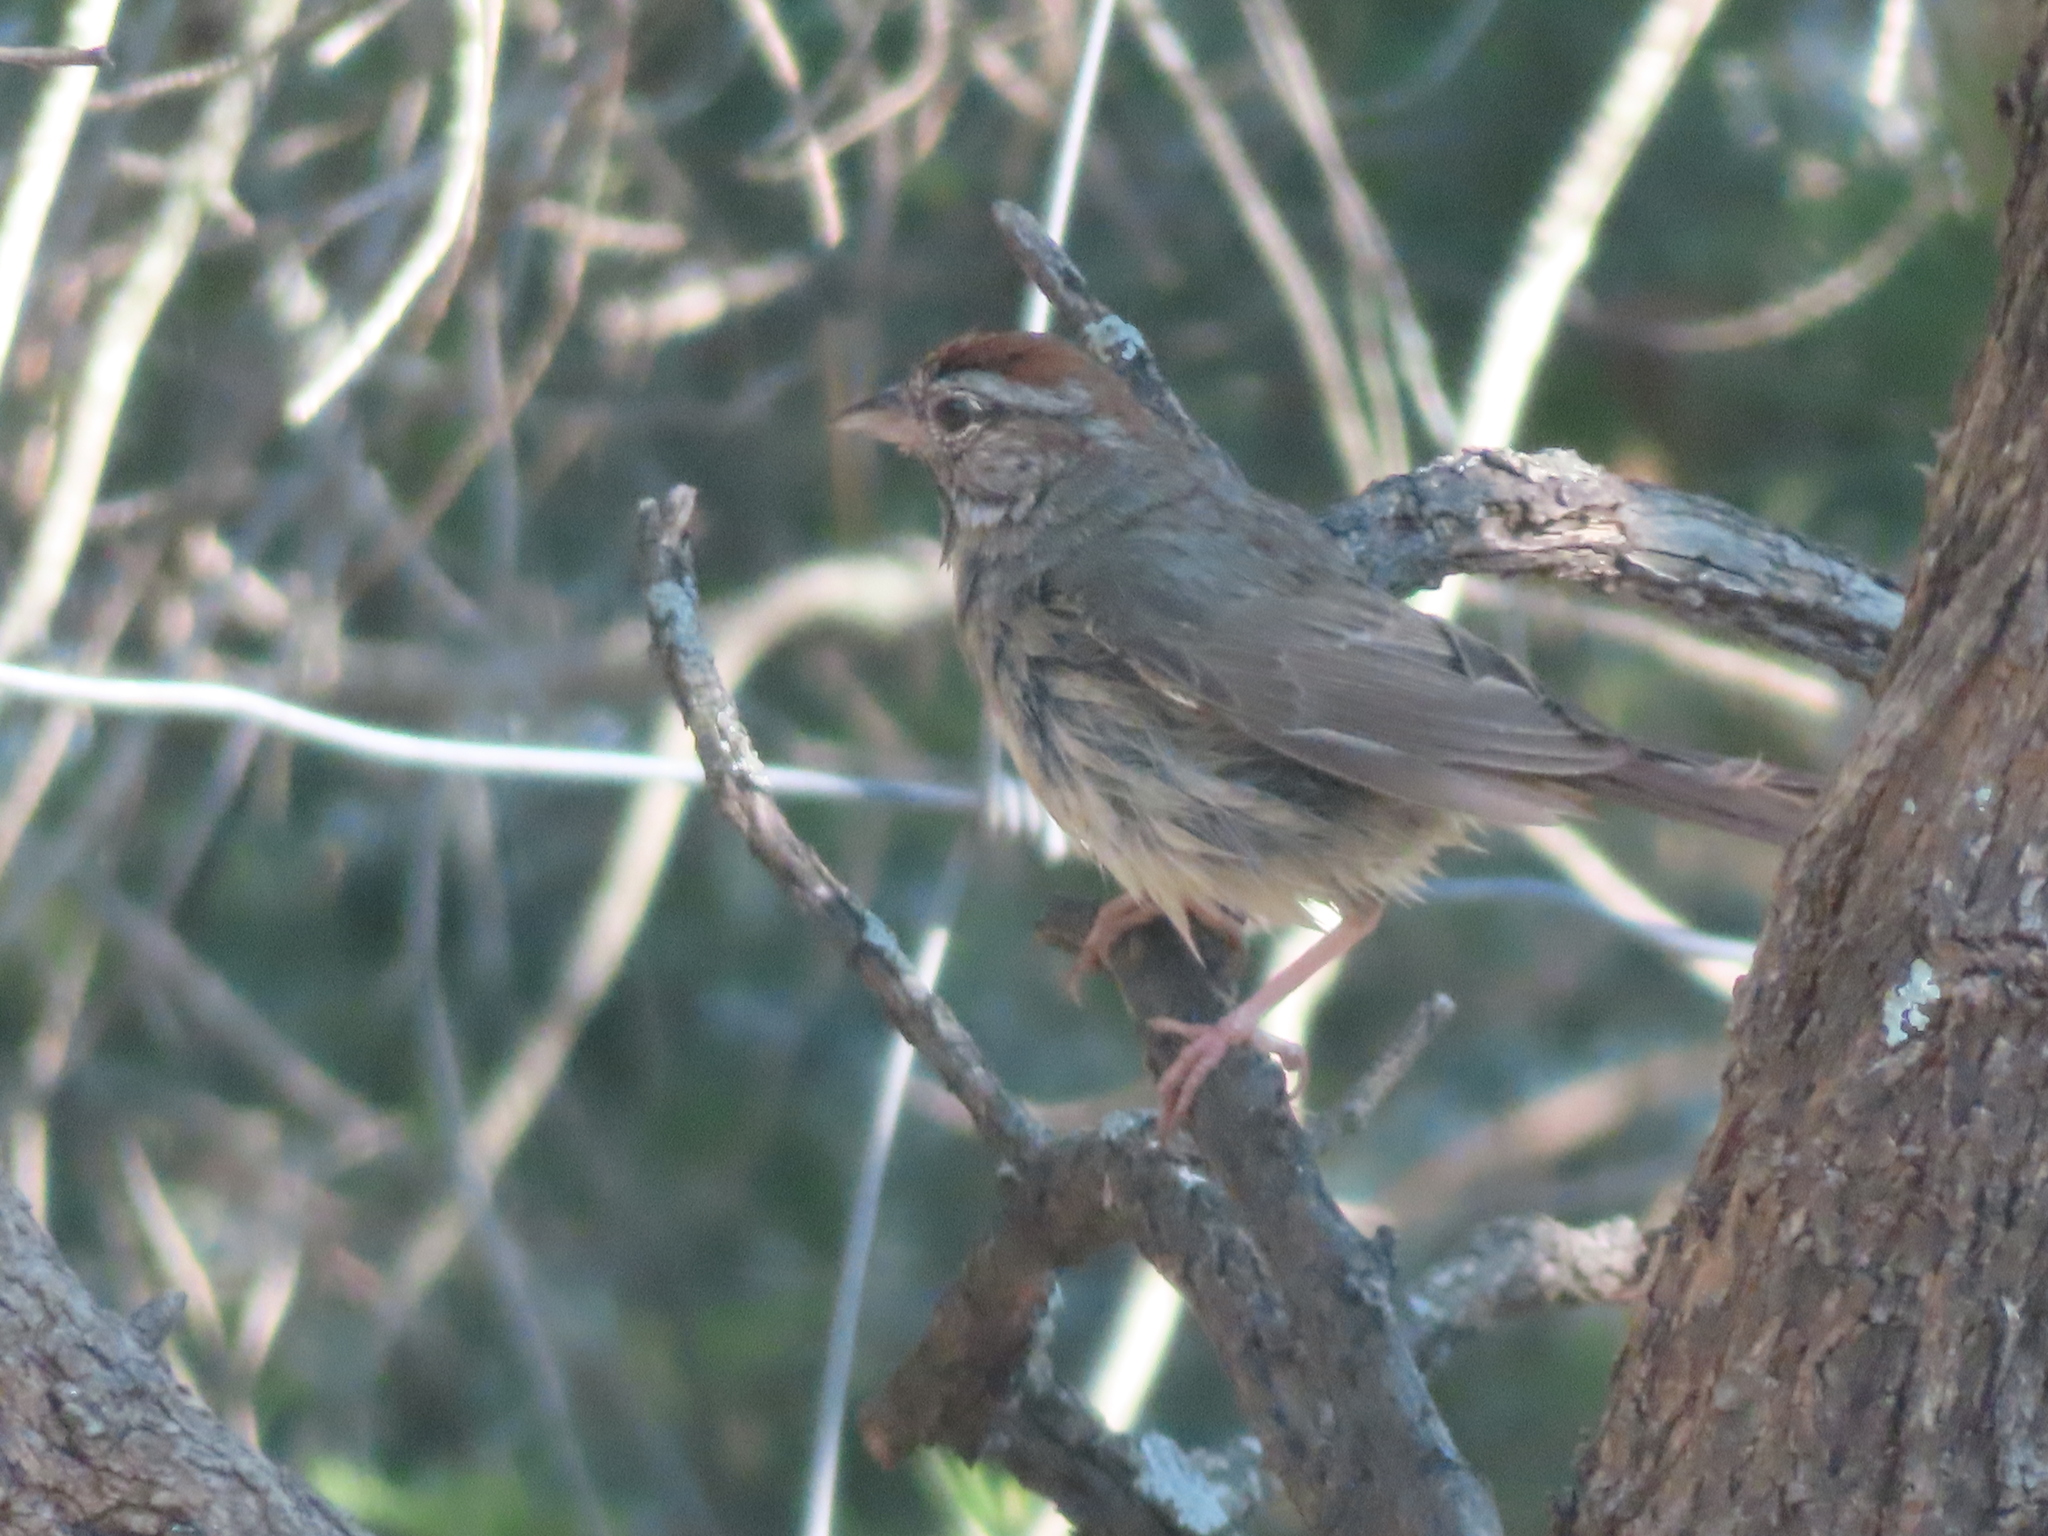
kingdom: Animalia
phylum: Chordata
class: Aves
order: Passeriformes
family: Passerellidae
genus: Aimophila
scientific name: Aimophila ruficeps
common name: Rufous-crowned sparrow
